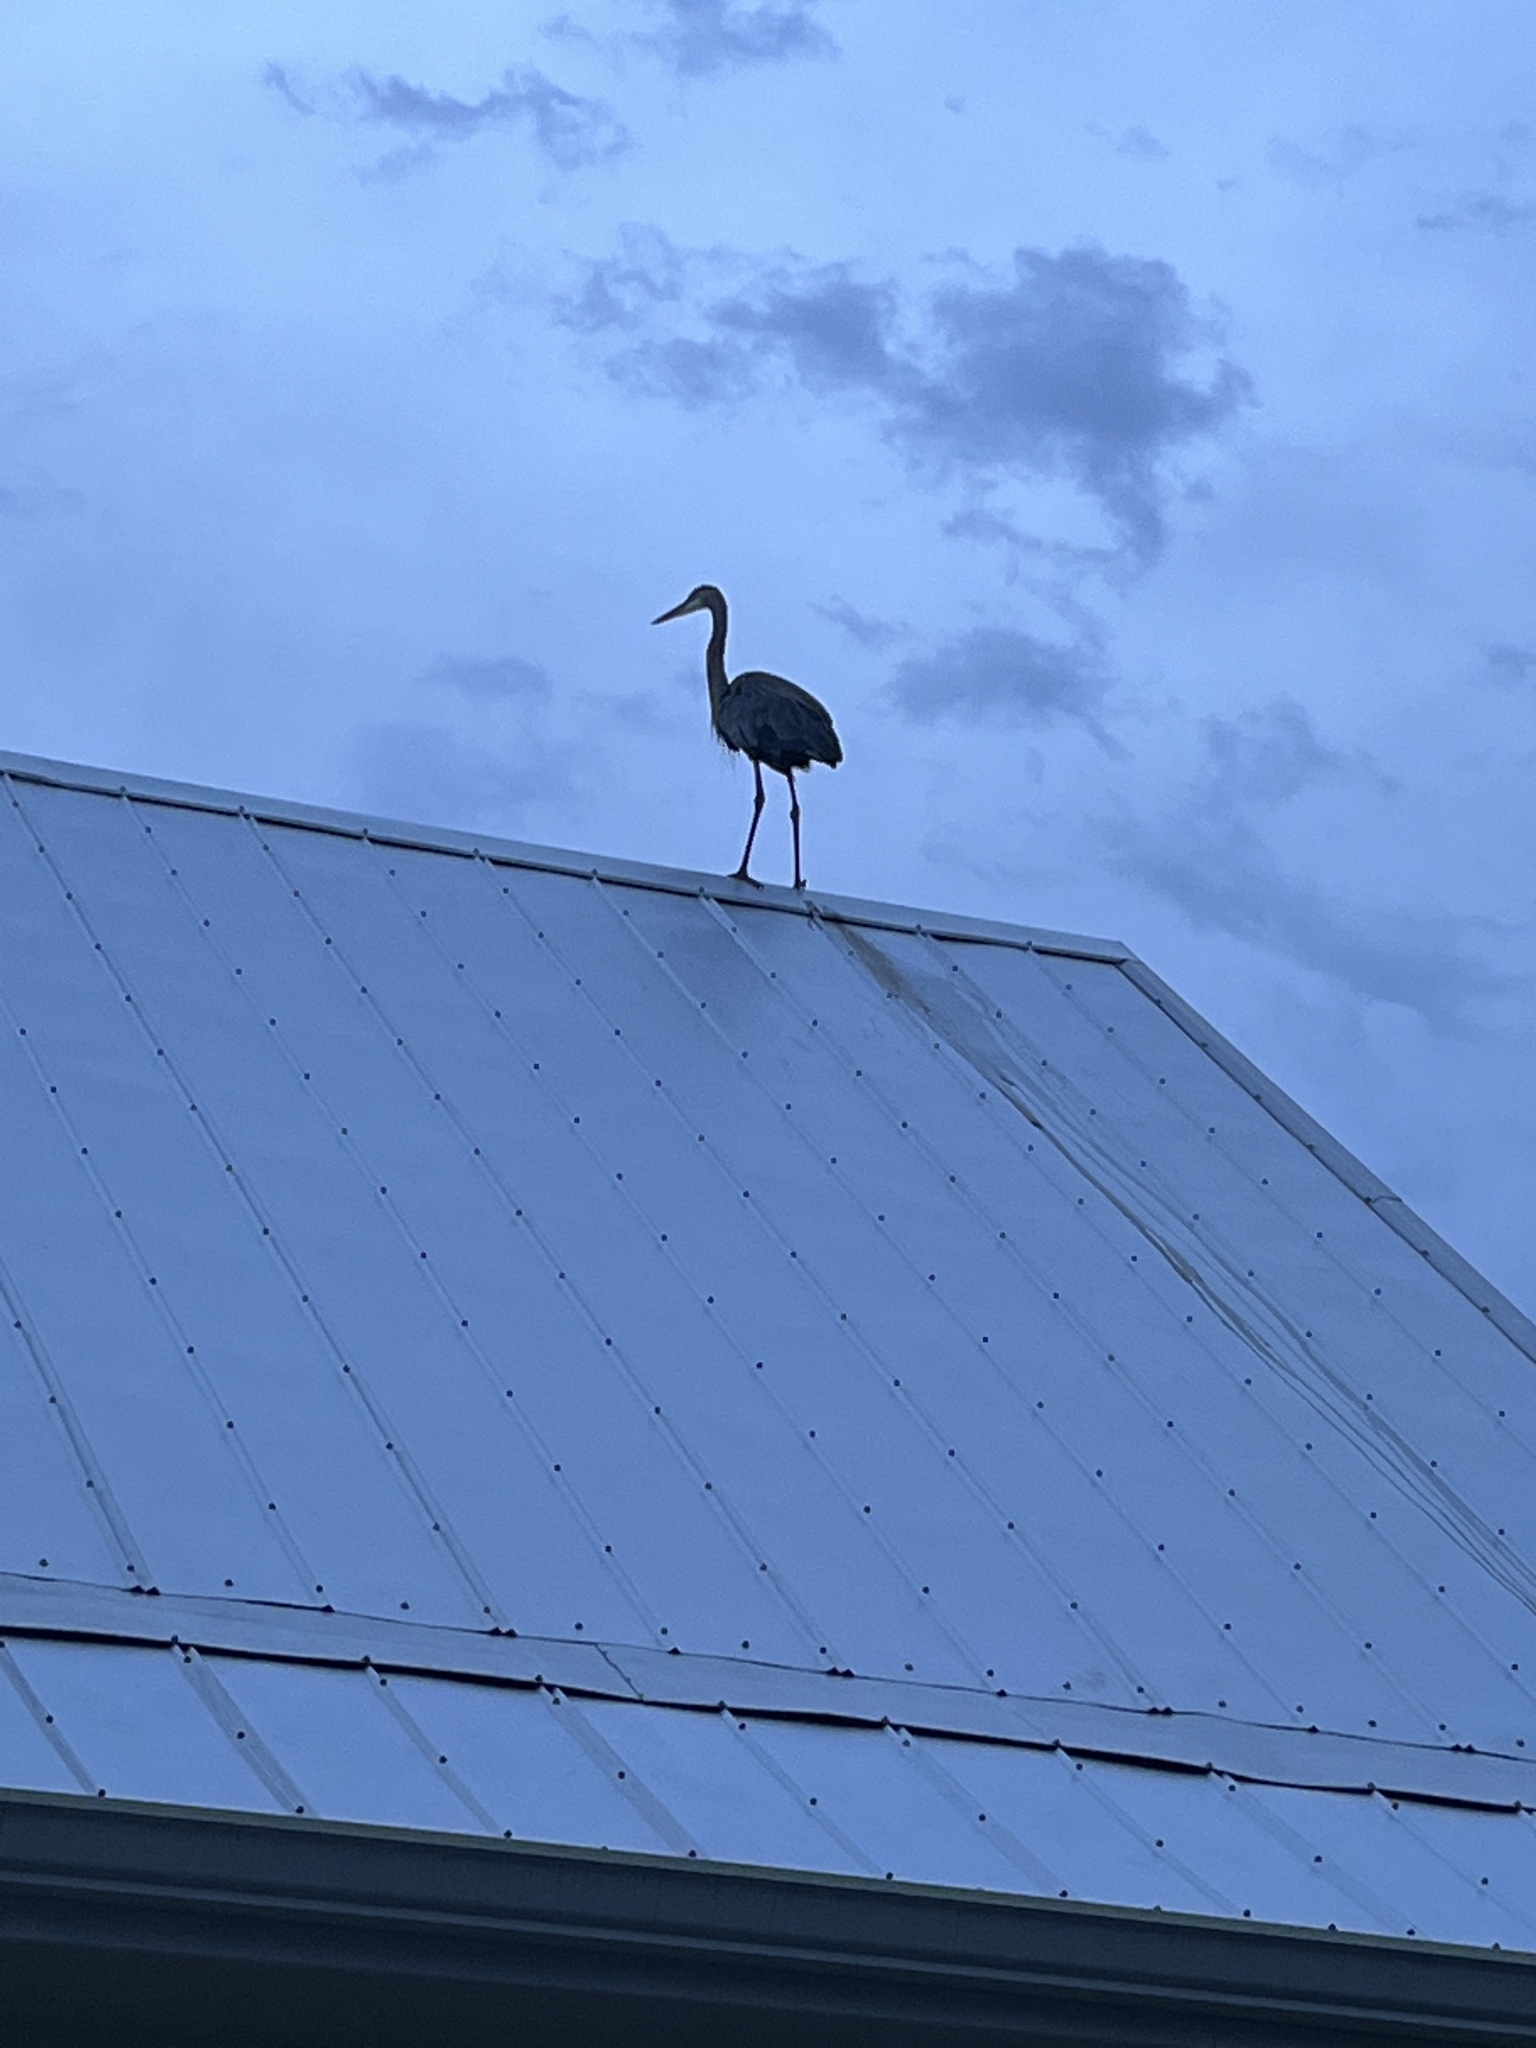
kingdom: Animalia
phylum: Chordata
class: Aves
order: Pelecaniformes
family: Ardeidae
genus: Ardea
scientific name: Ardea herodias
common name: Great blue heron
